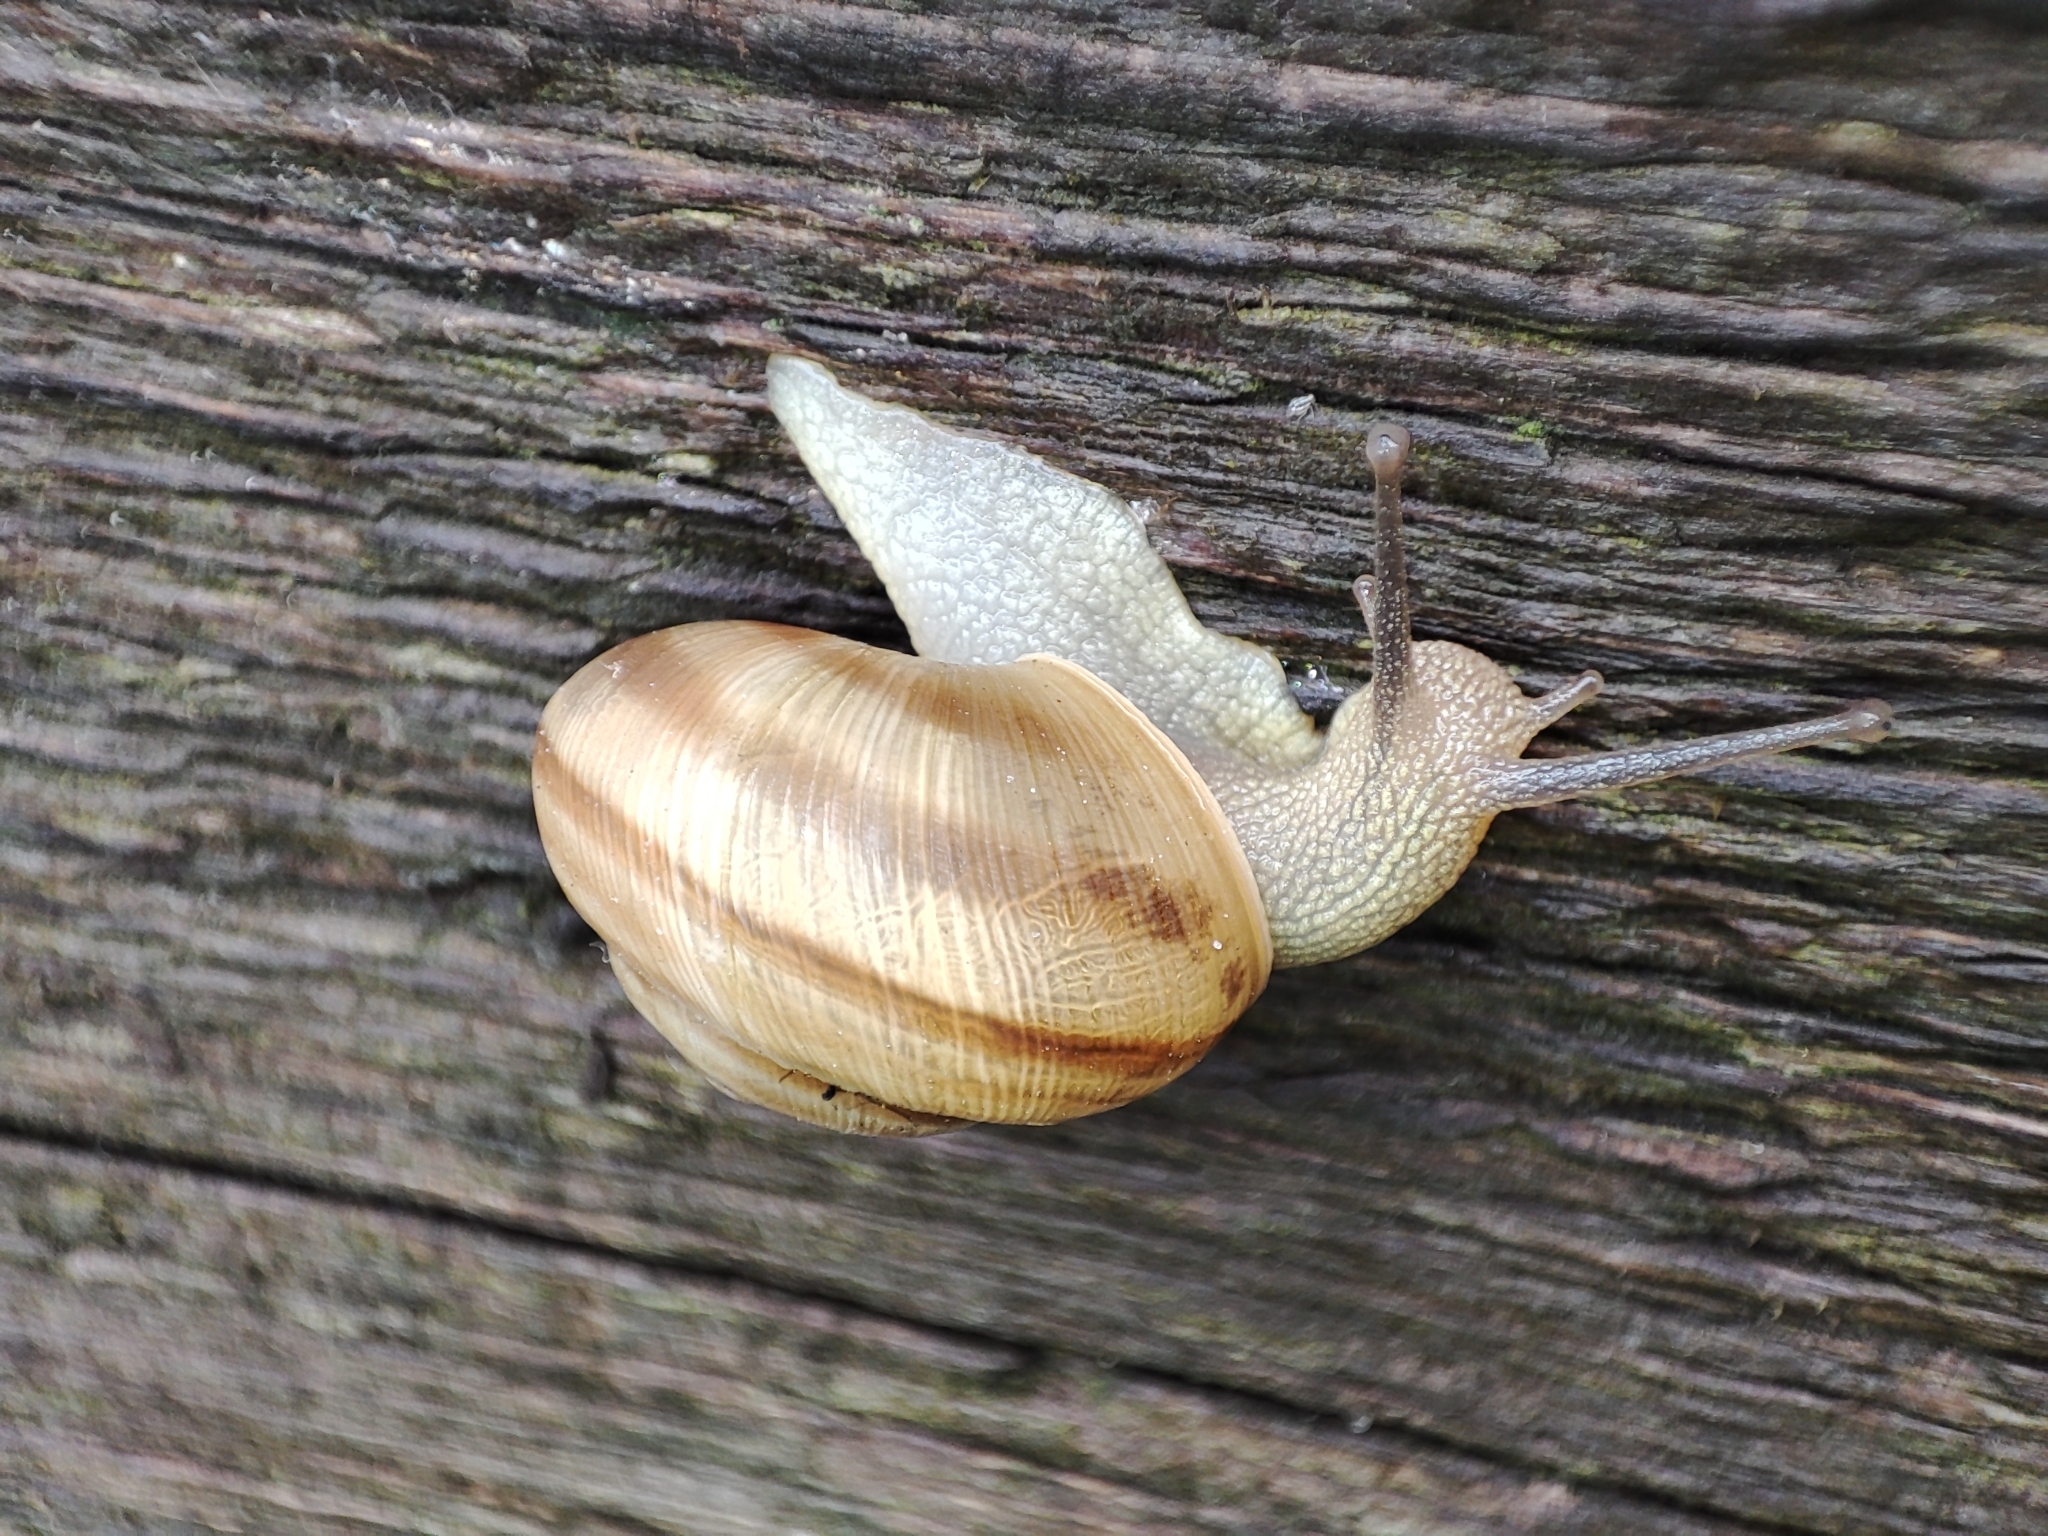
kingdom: Animalia
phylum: Mollusca
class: Gastropoda
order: Stylommatophora
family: Helicidae
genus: Caucasotachea
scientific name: Caucasotachea vindobonensis
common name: European helicid land snail
